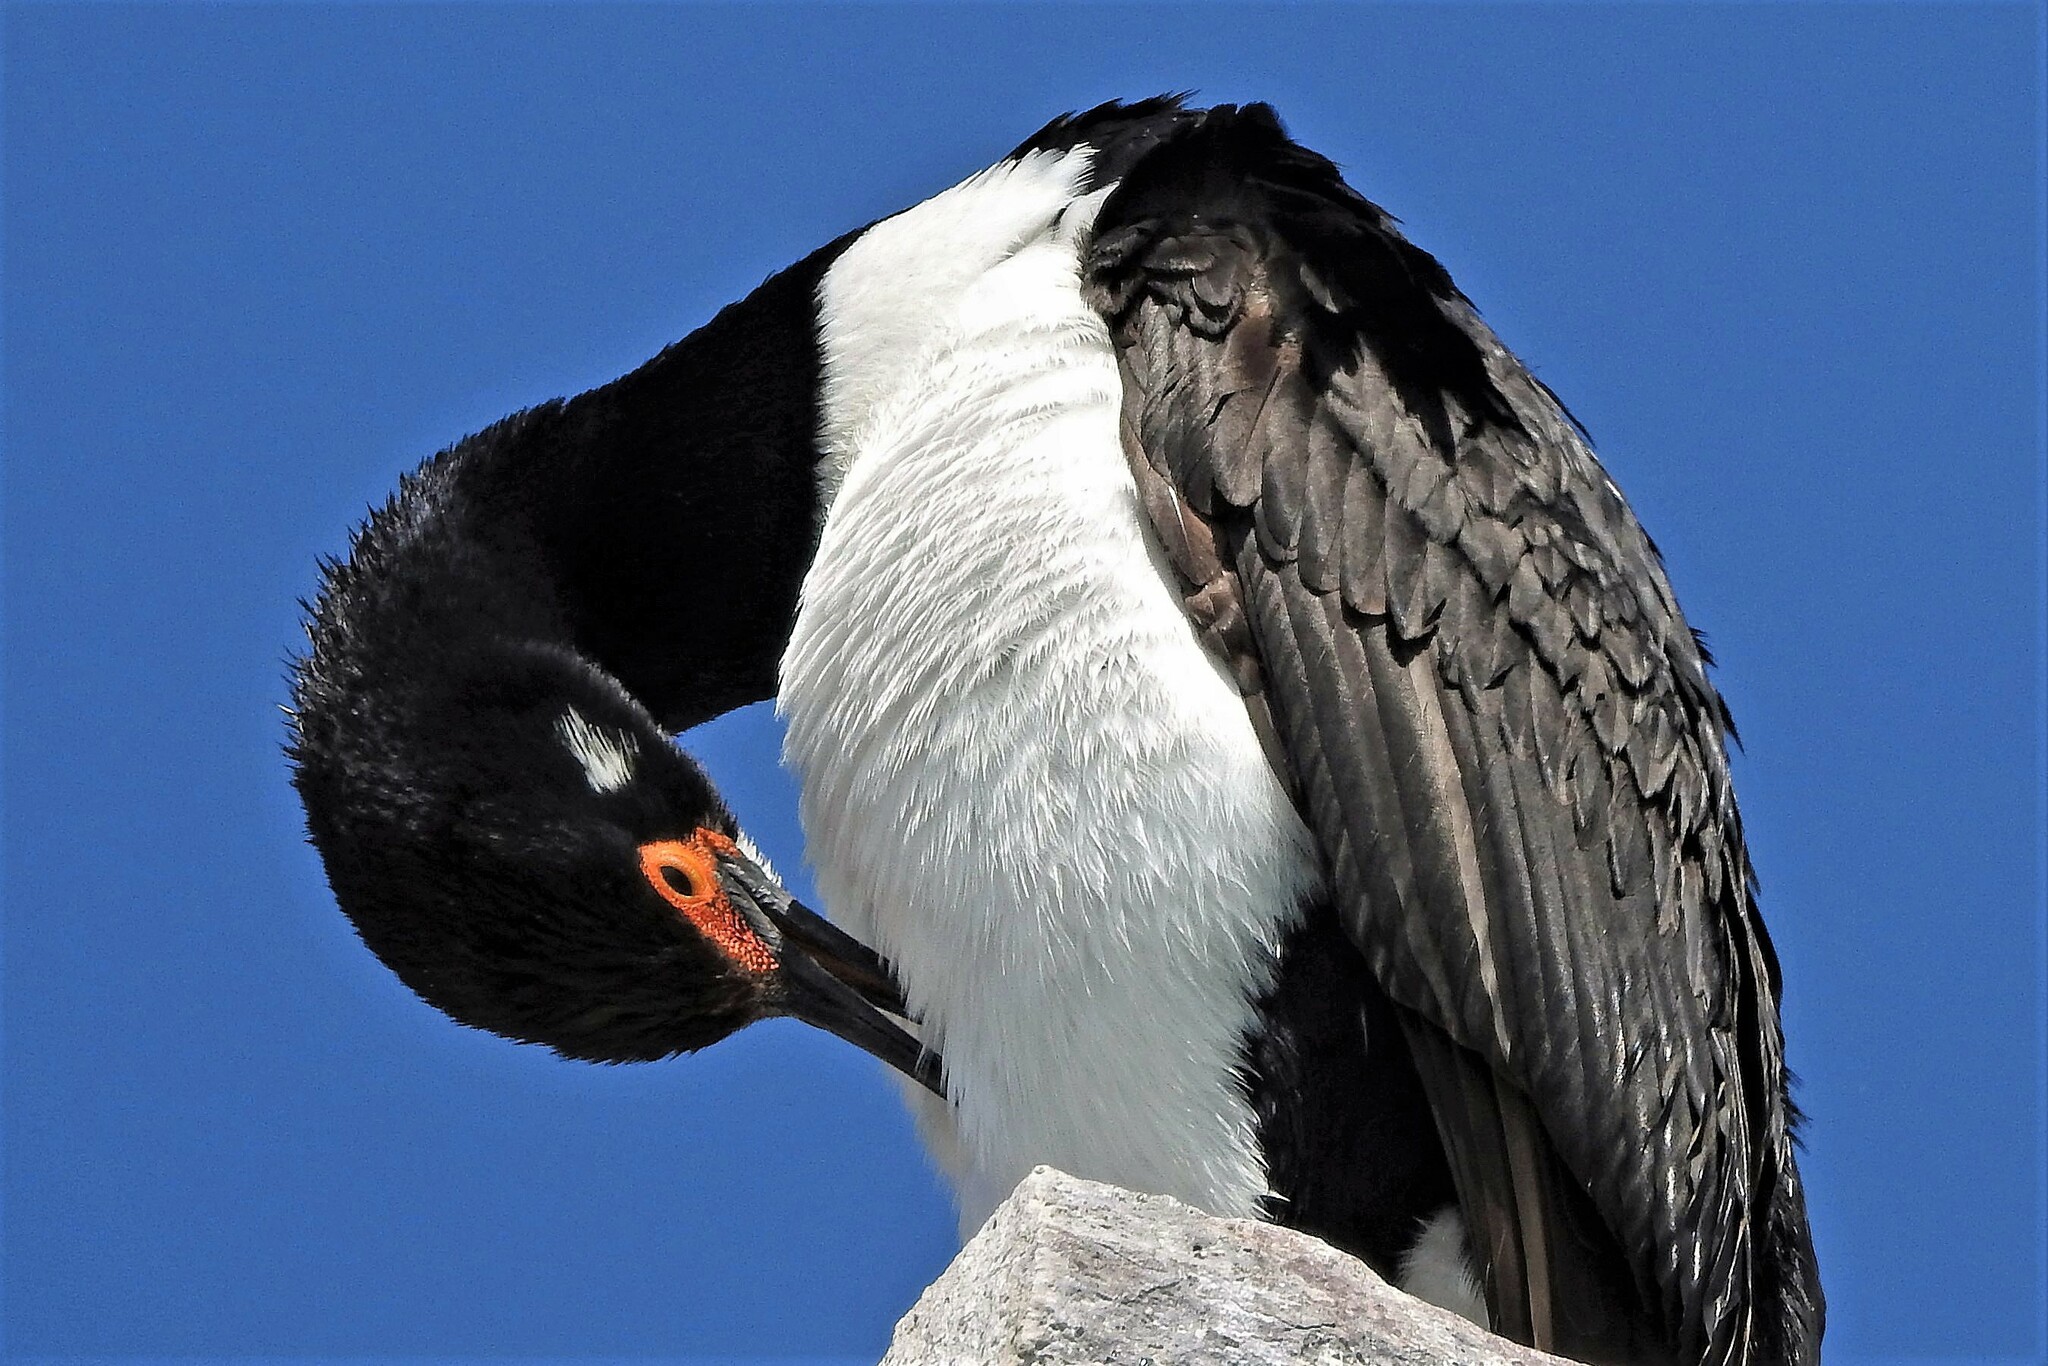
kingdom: Animalia
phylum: Chordata
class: Aves
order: Suliformes
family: Phalacrocoracidae
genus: Phalacrocorax
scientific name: Phalacrocorax magellanicus
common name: Rock shag
